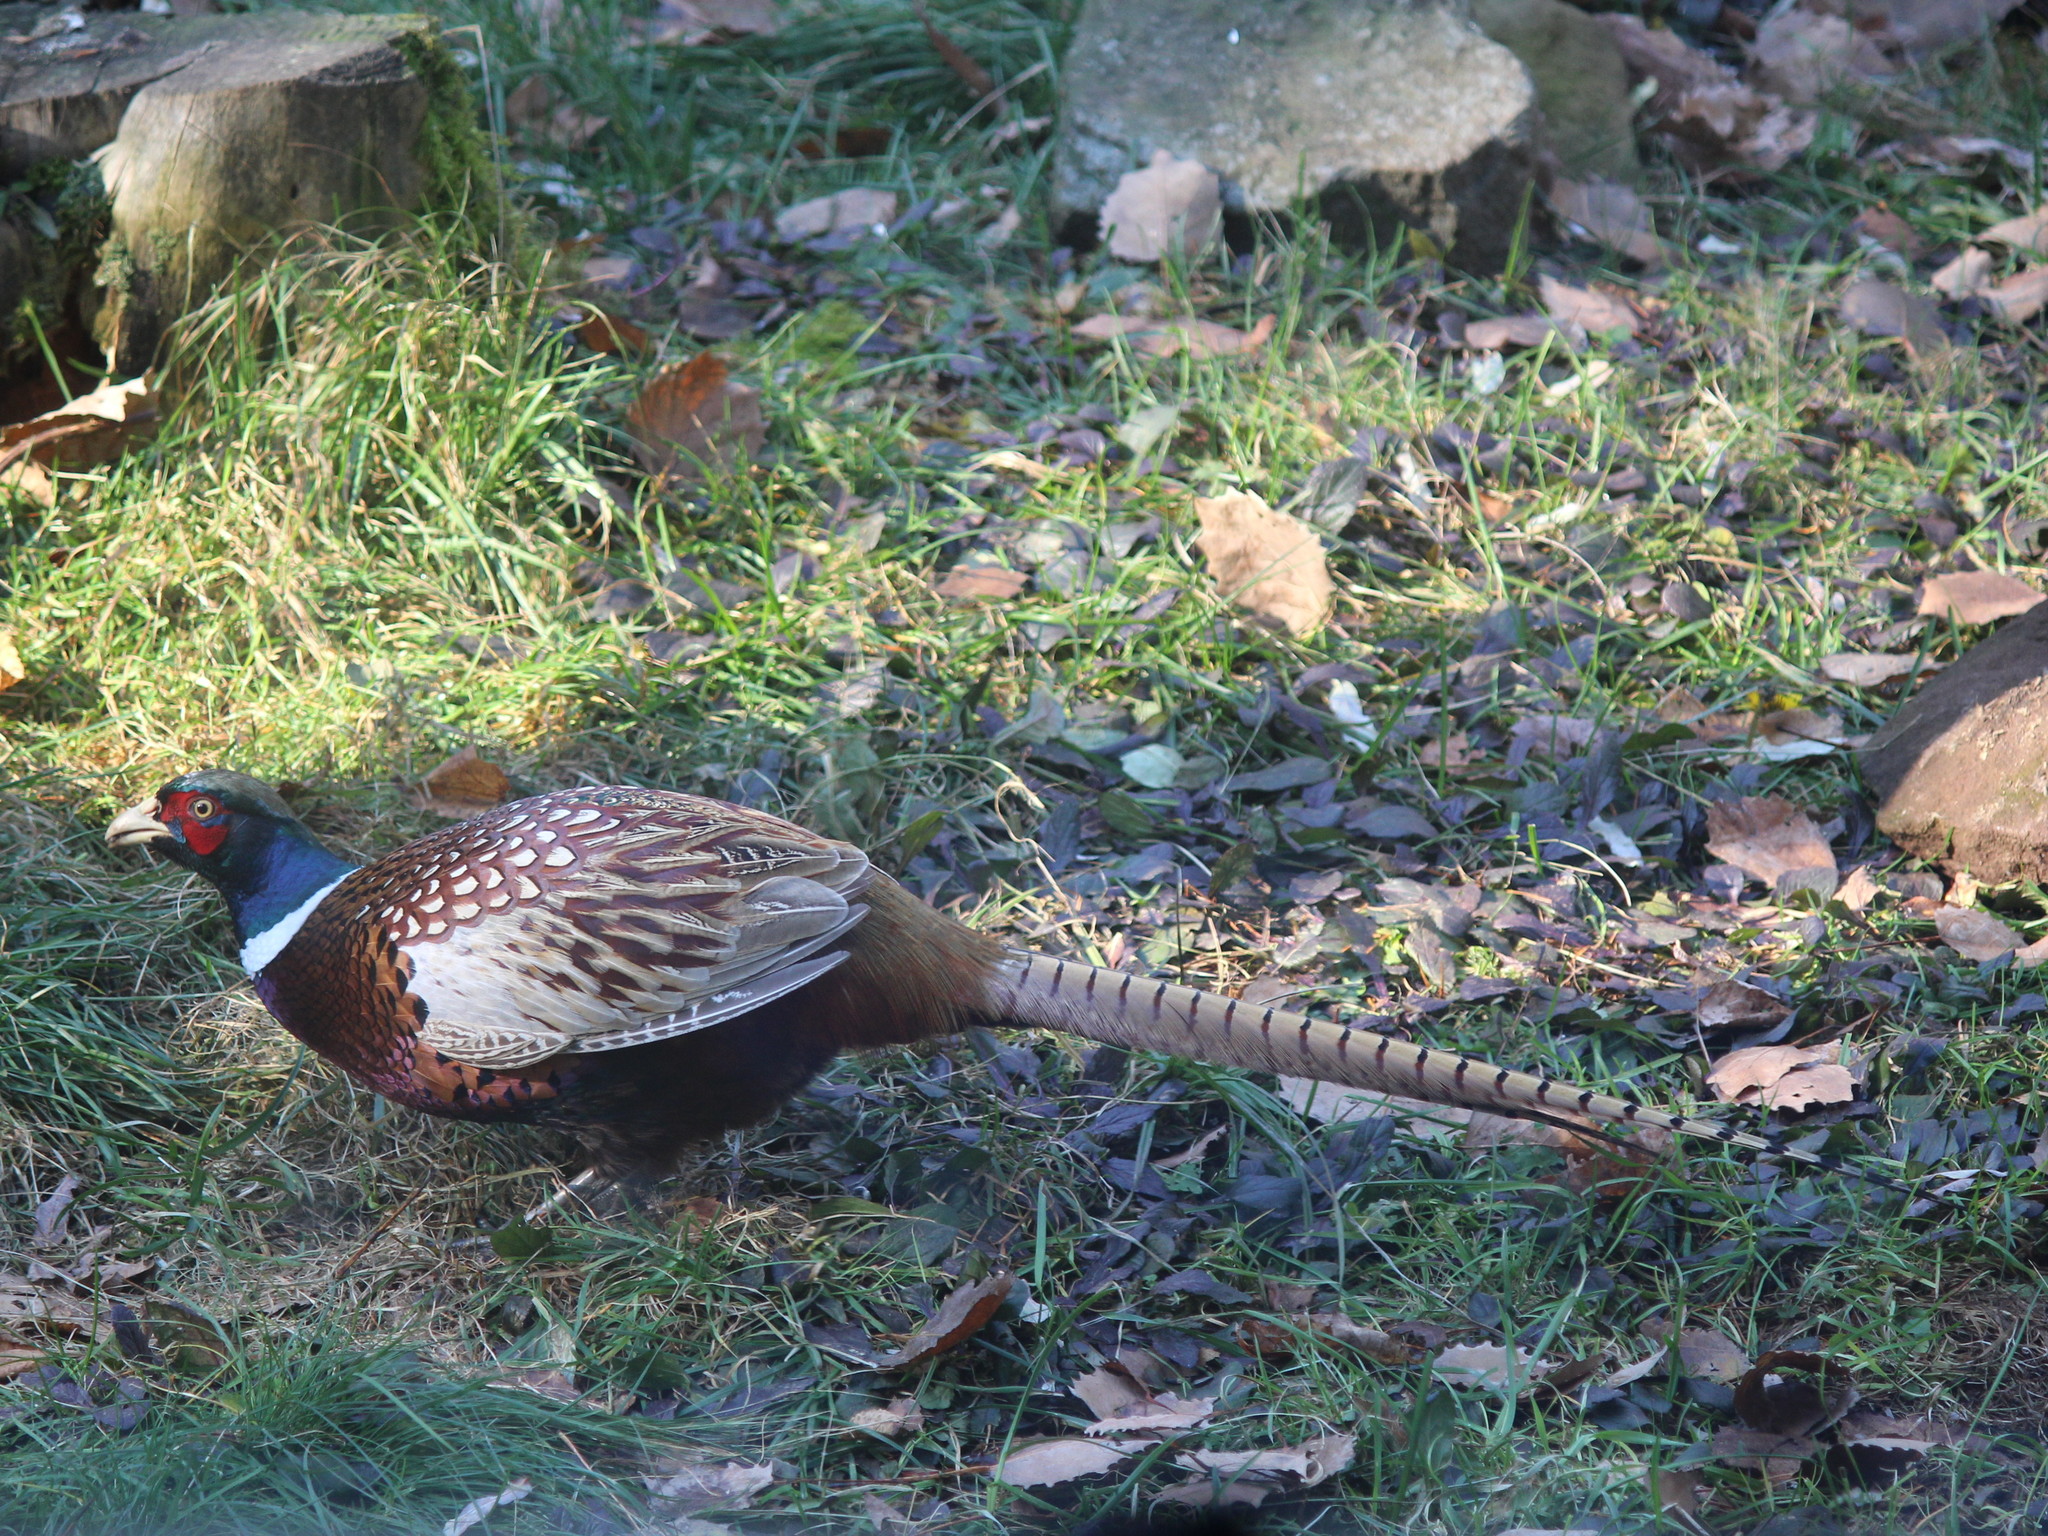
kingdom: Animalia
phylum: Chordata
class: Aves
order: Galliformes
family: Phasianidae
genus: Phasianus
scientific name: Phasianus colchicus
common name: Common pheasant
